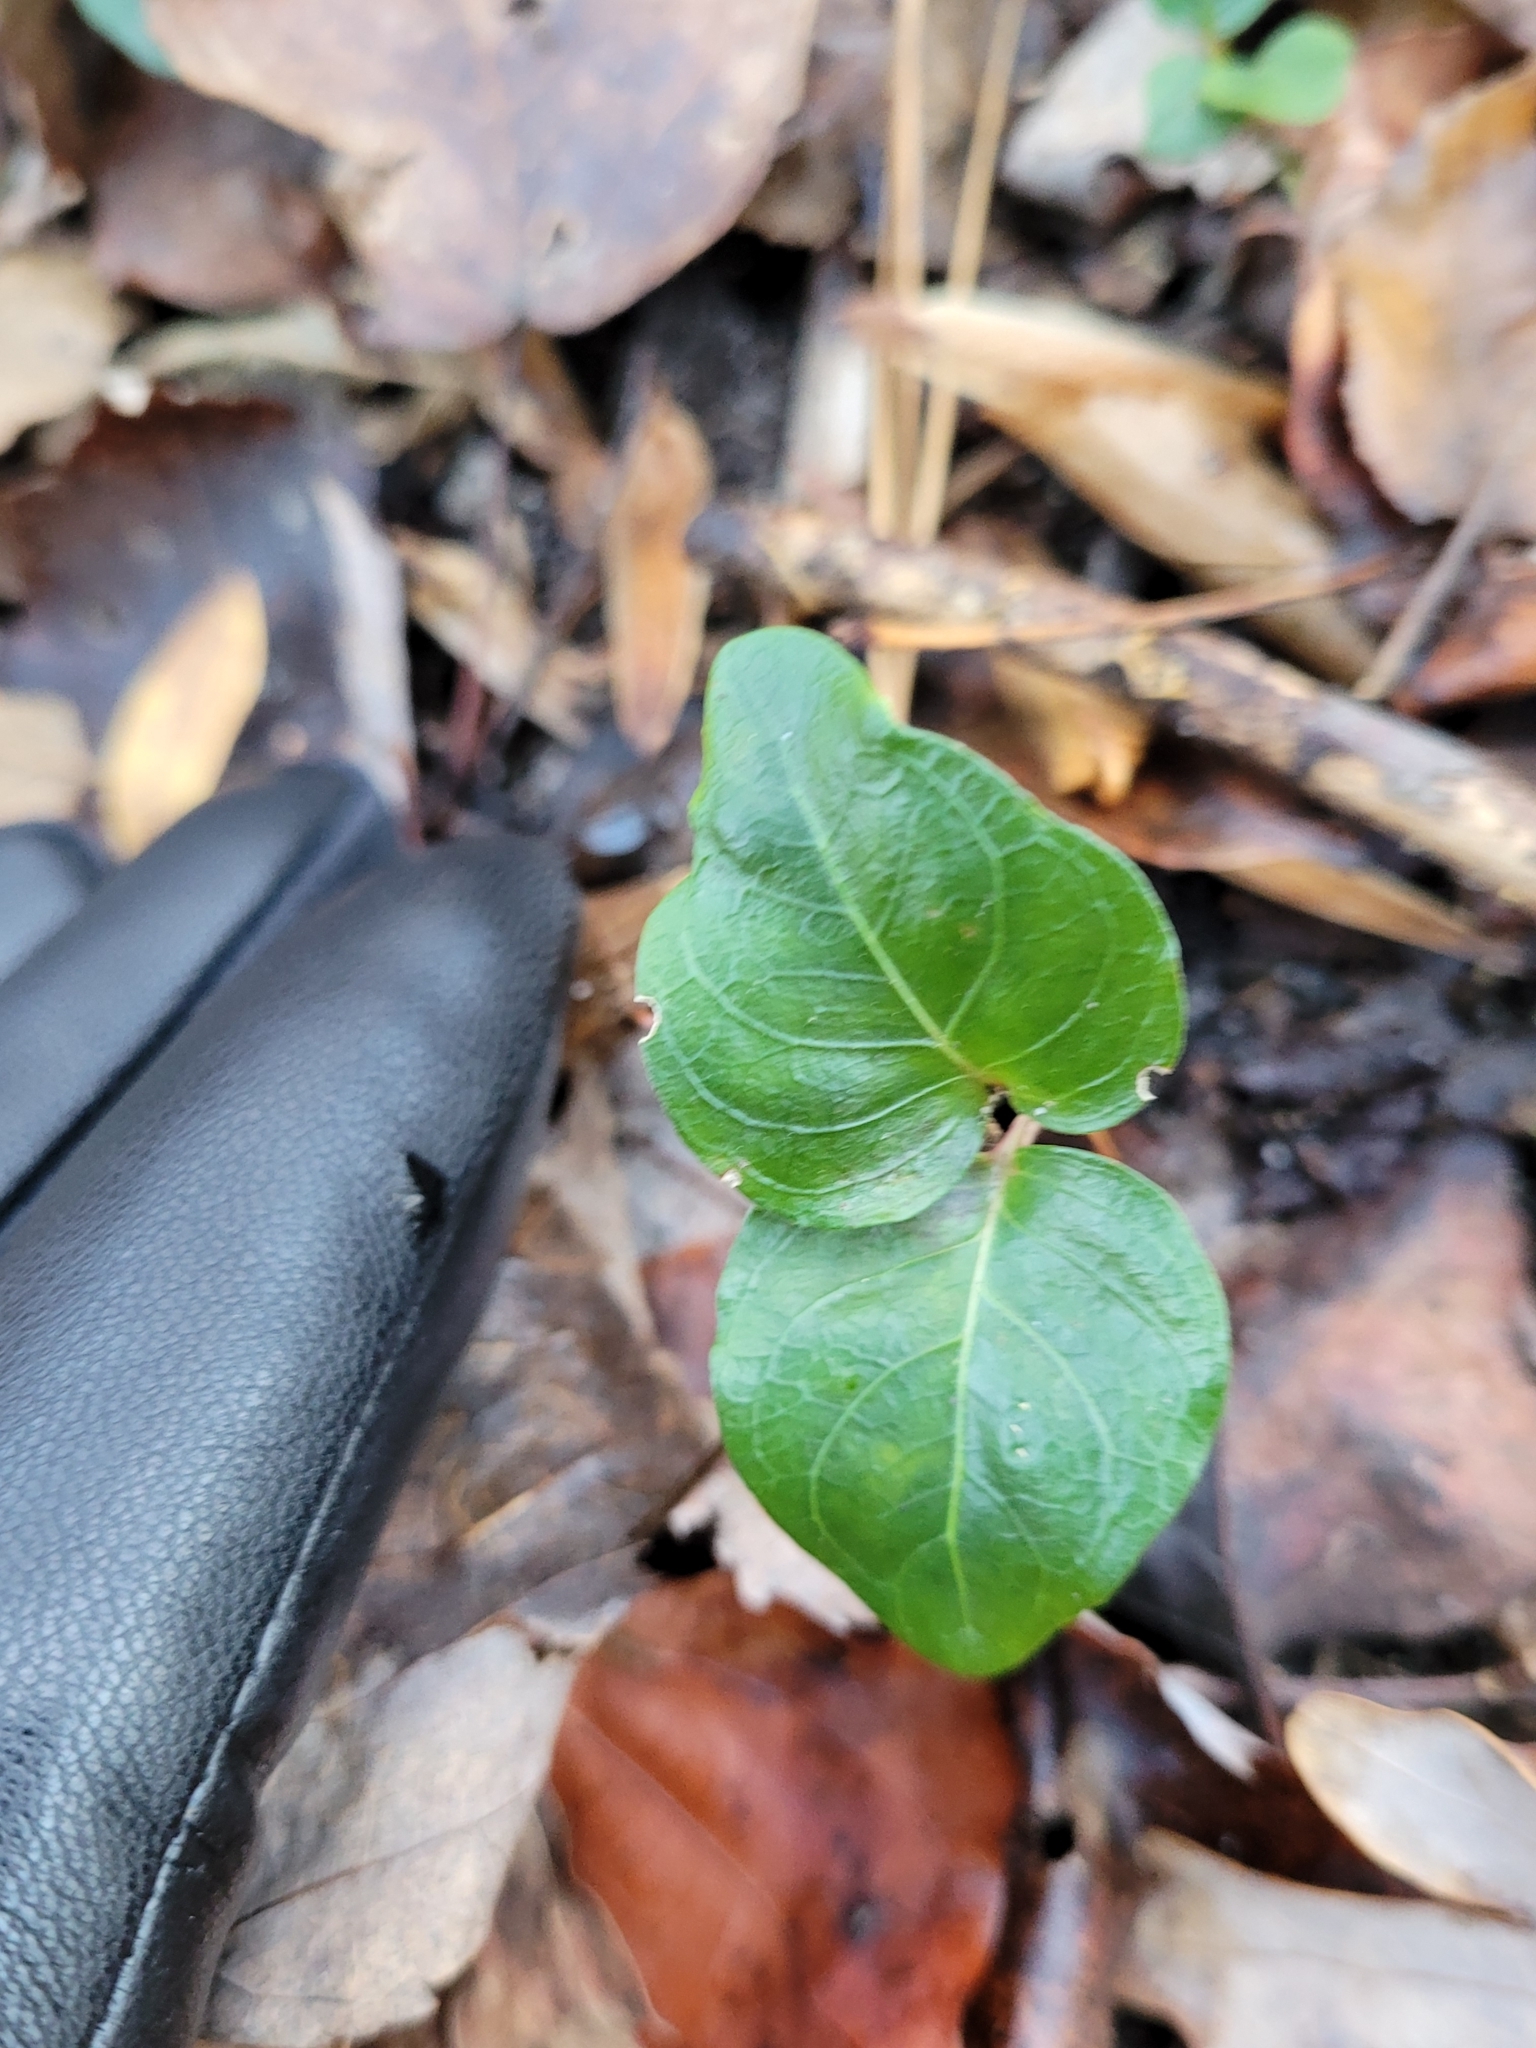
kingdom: Plantae
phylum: Tracheophyta
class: Magnoliopsida
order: Gentianales
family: Rubiaceae
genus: Mitchella
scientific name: Mitchella repens
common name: Partridge-berry
